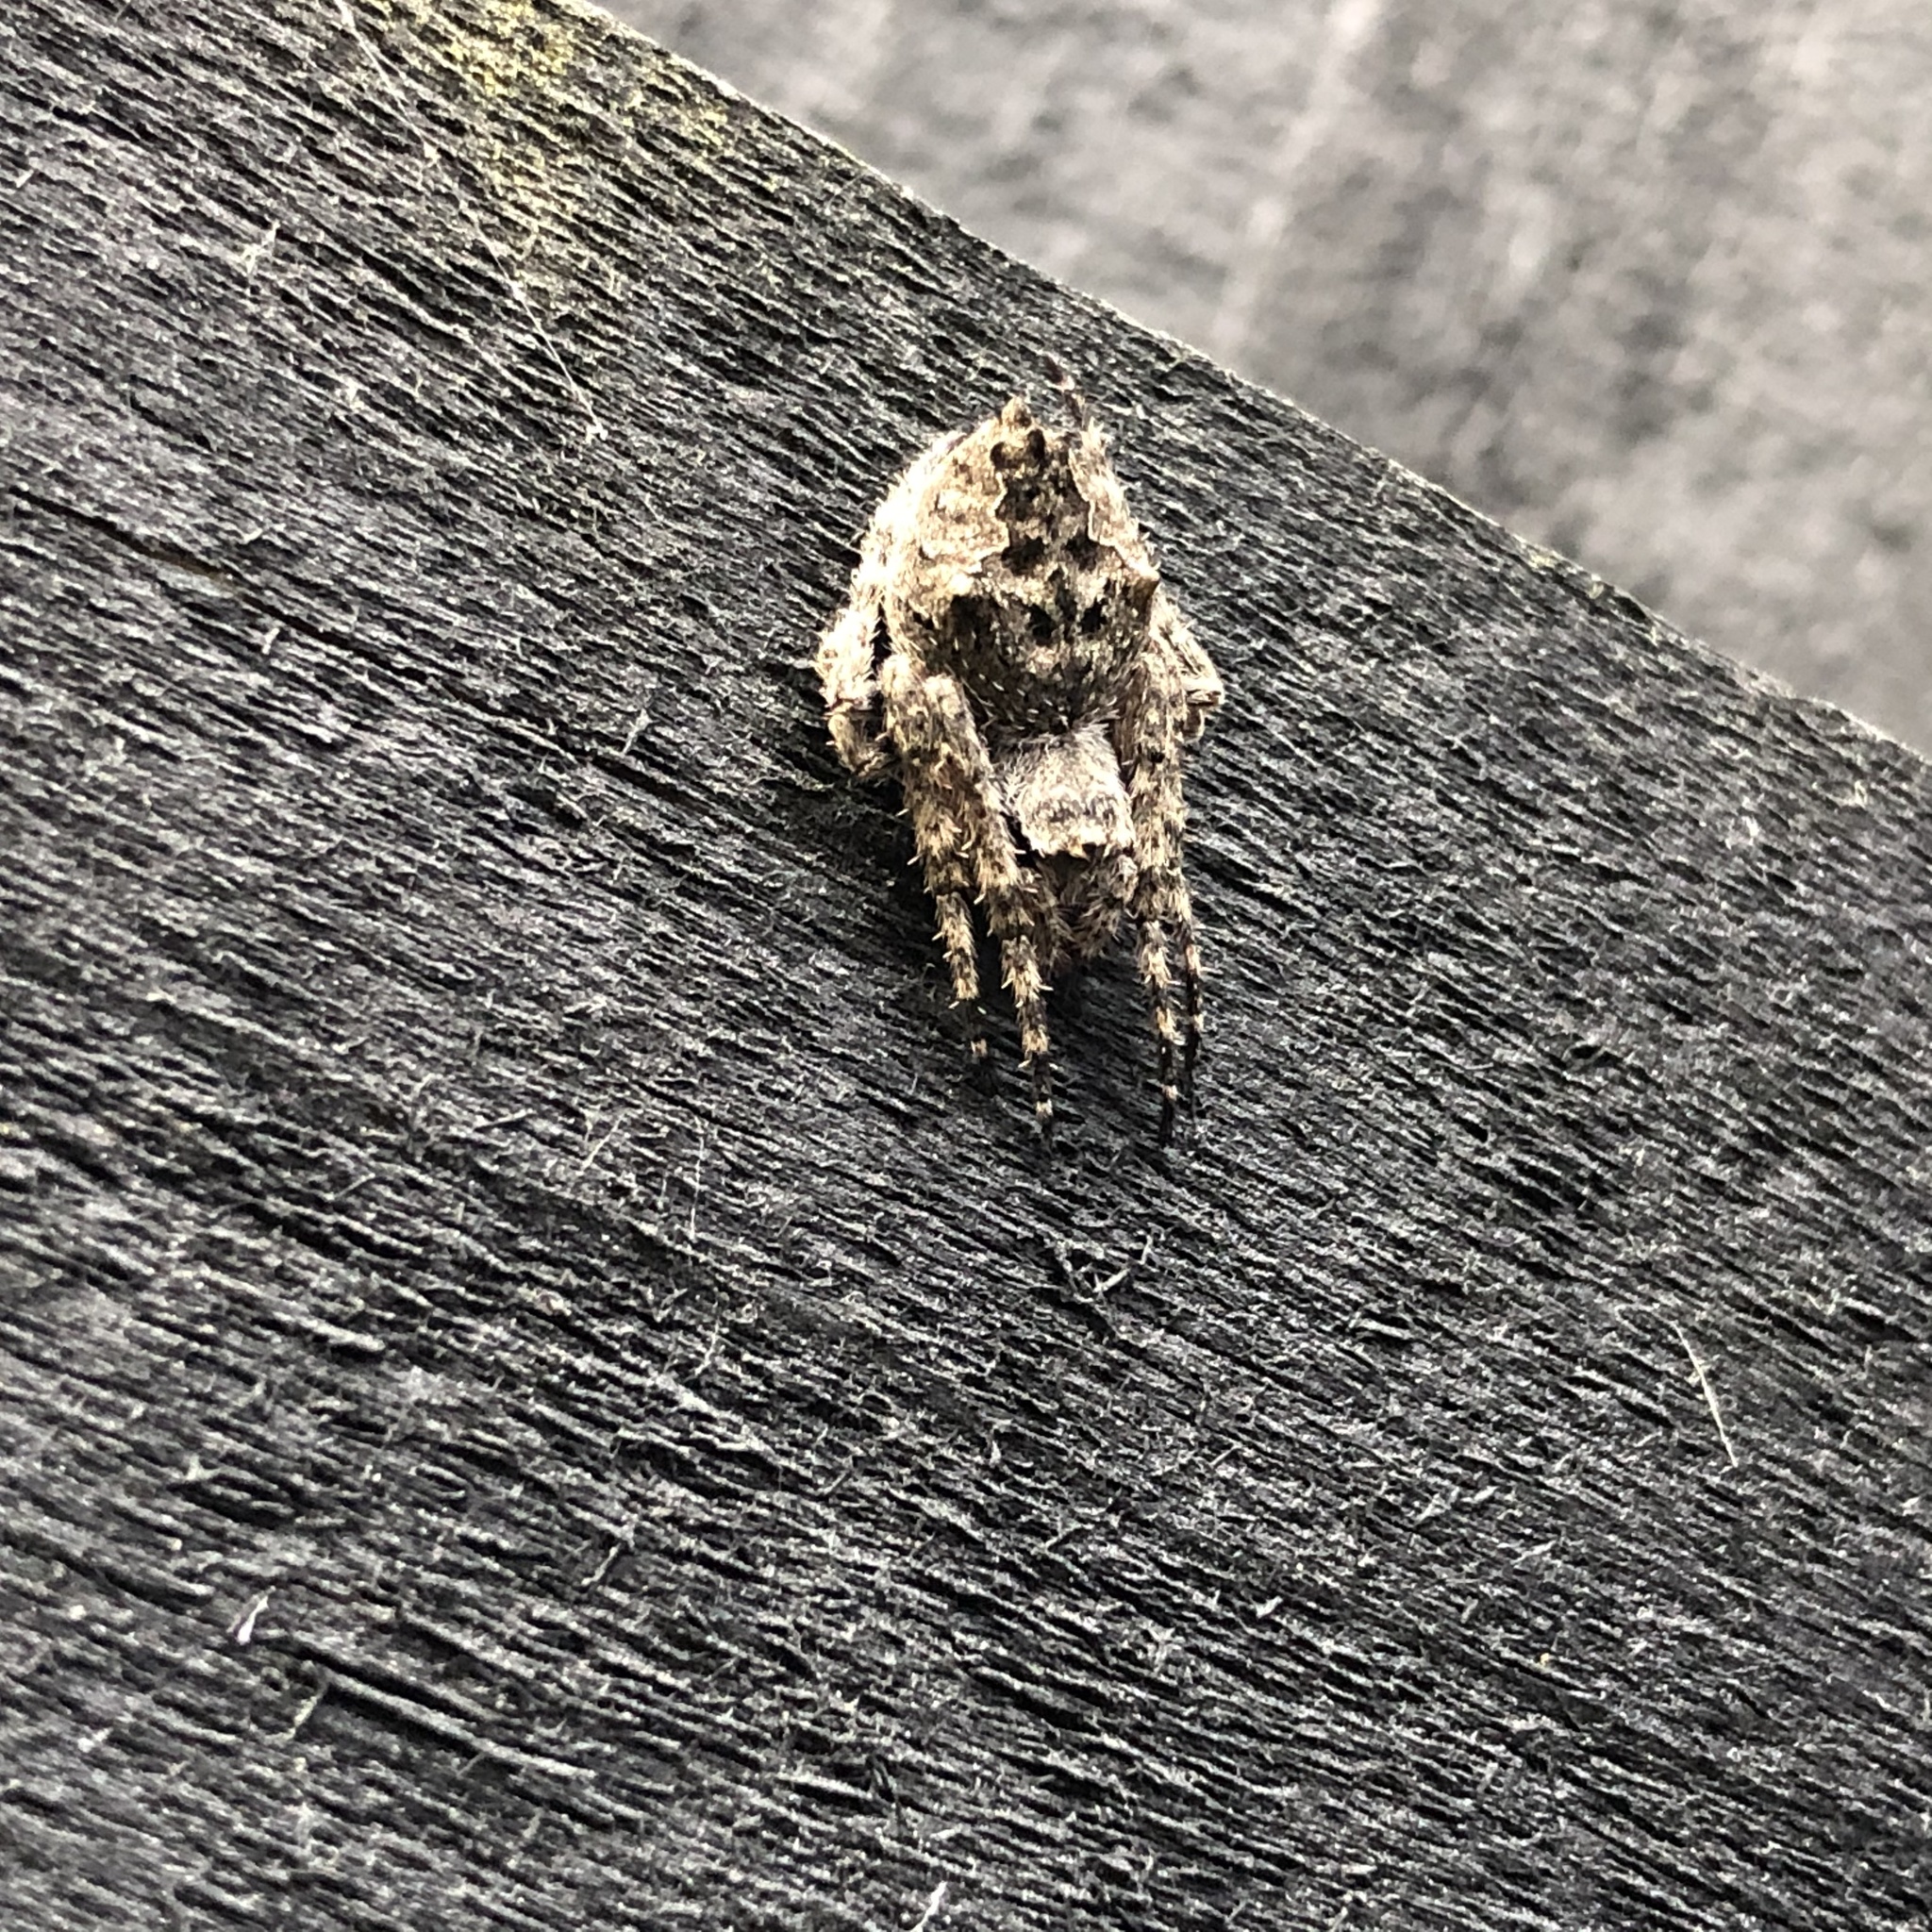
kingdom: Animalia
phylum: Arthropoda
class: Arachnida
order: Araneae
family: Araneidae
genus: Eriophora
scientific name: Eriophora pustulosa
